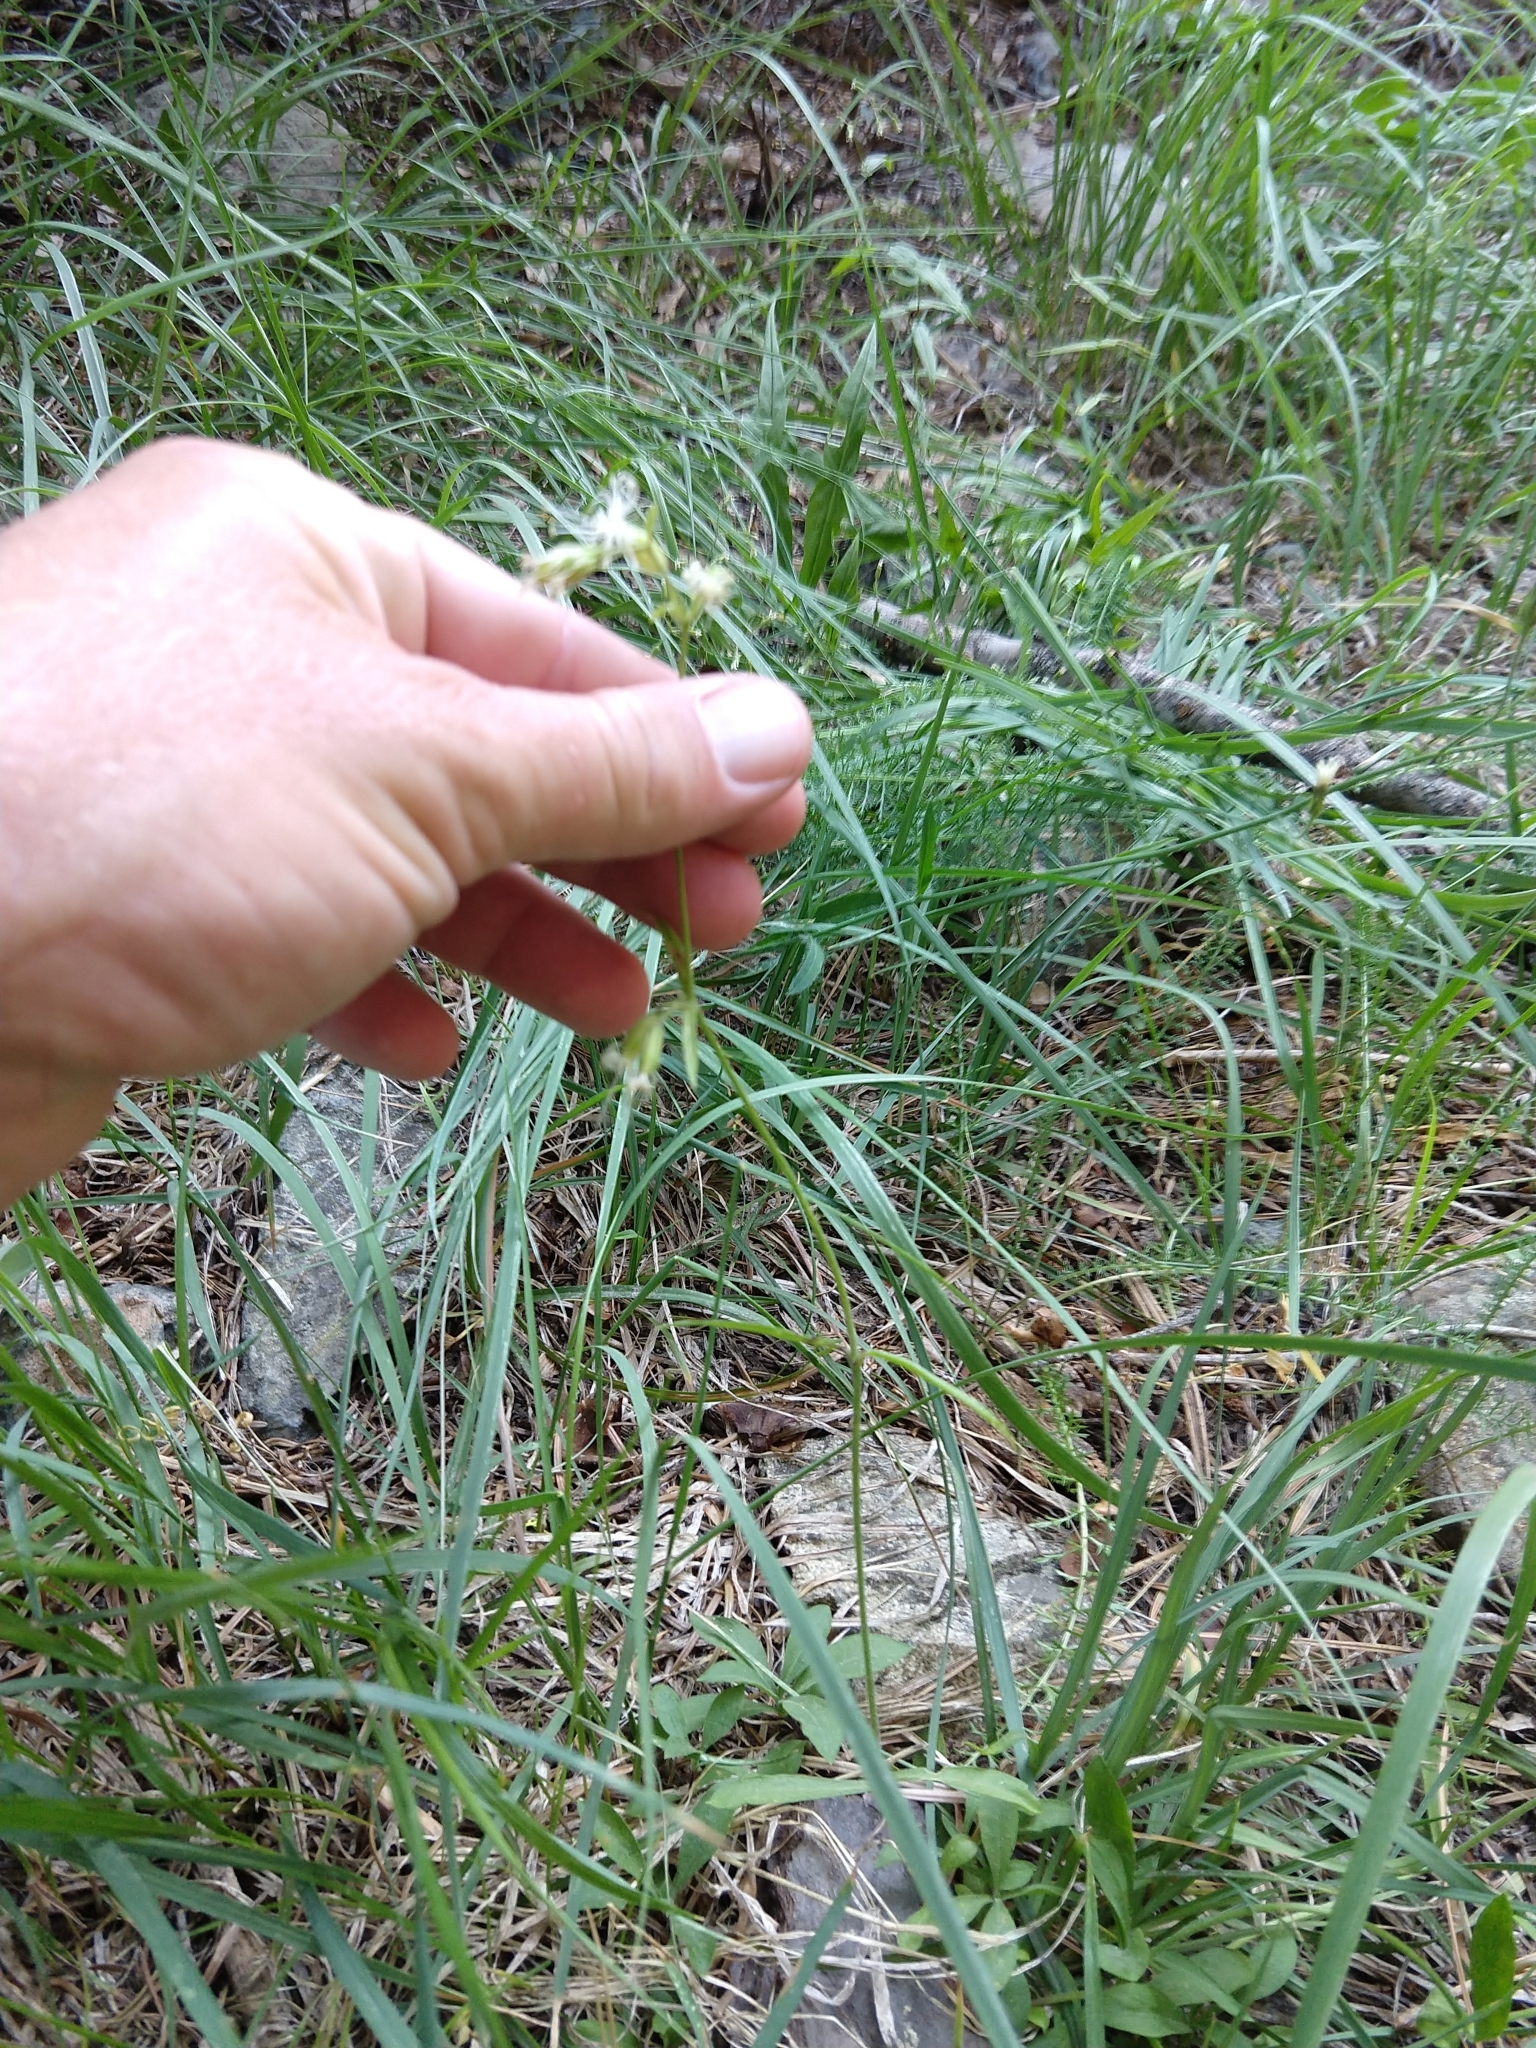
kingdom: Plantae
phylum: Tracheophyta
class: Magnoliopsida
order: Caryophyllales
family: Caryophyllaceae
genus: Silene
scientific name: Silene lemmonii
